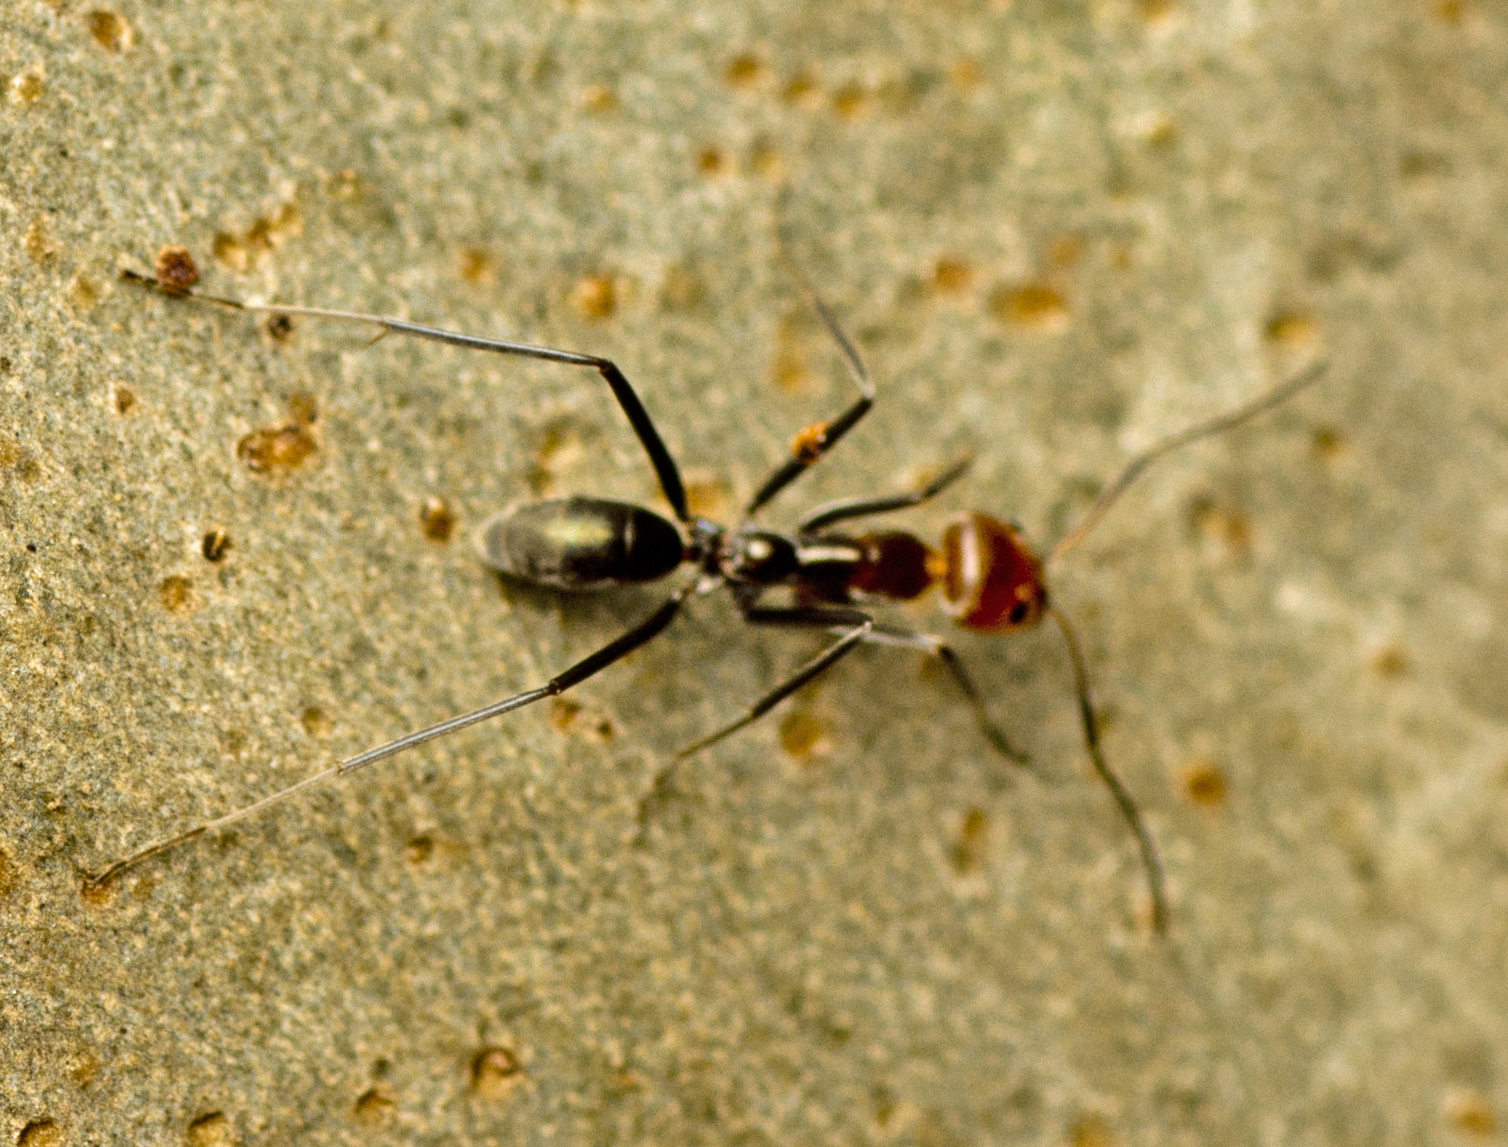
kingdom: Animalia
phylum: Arthropoda
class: Insecta
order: Hymenoptera
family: Formicidae
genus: Iridomyrmex
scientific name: Iridomyrmex
